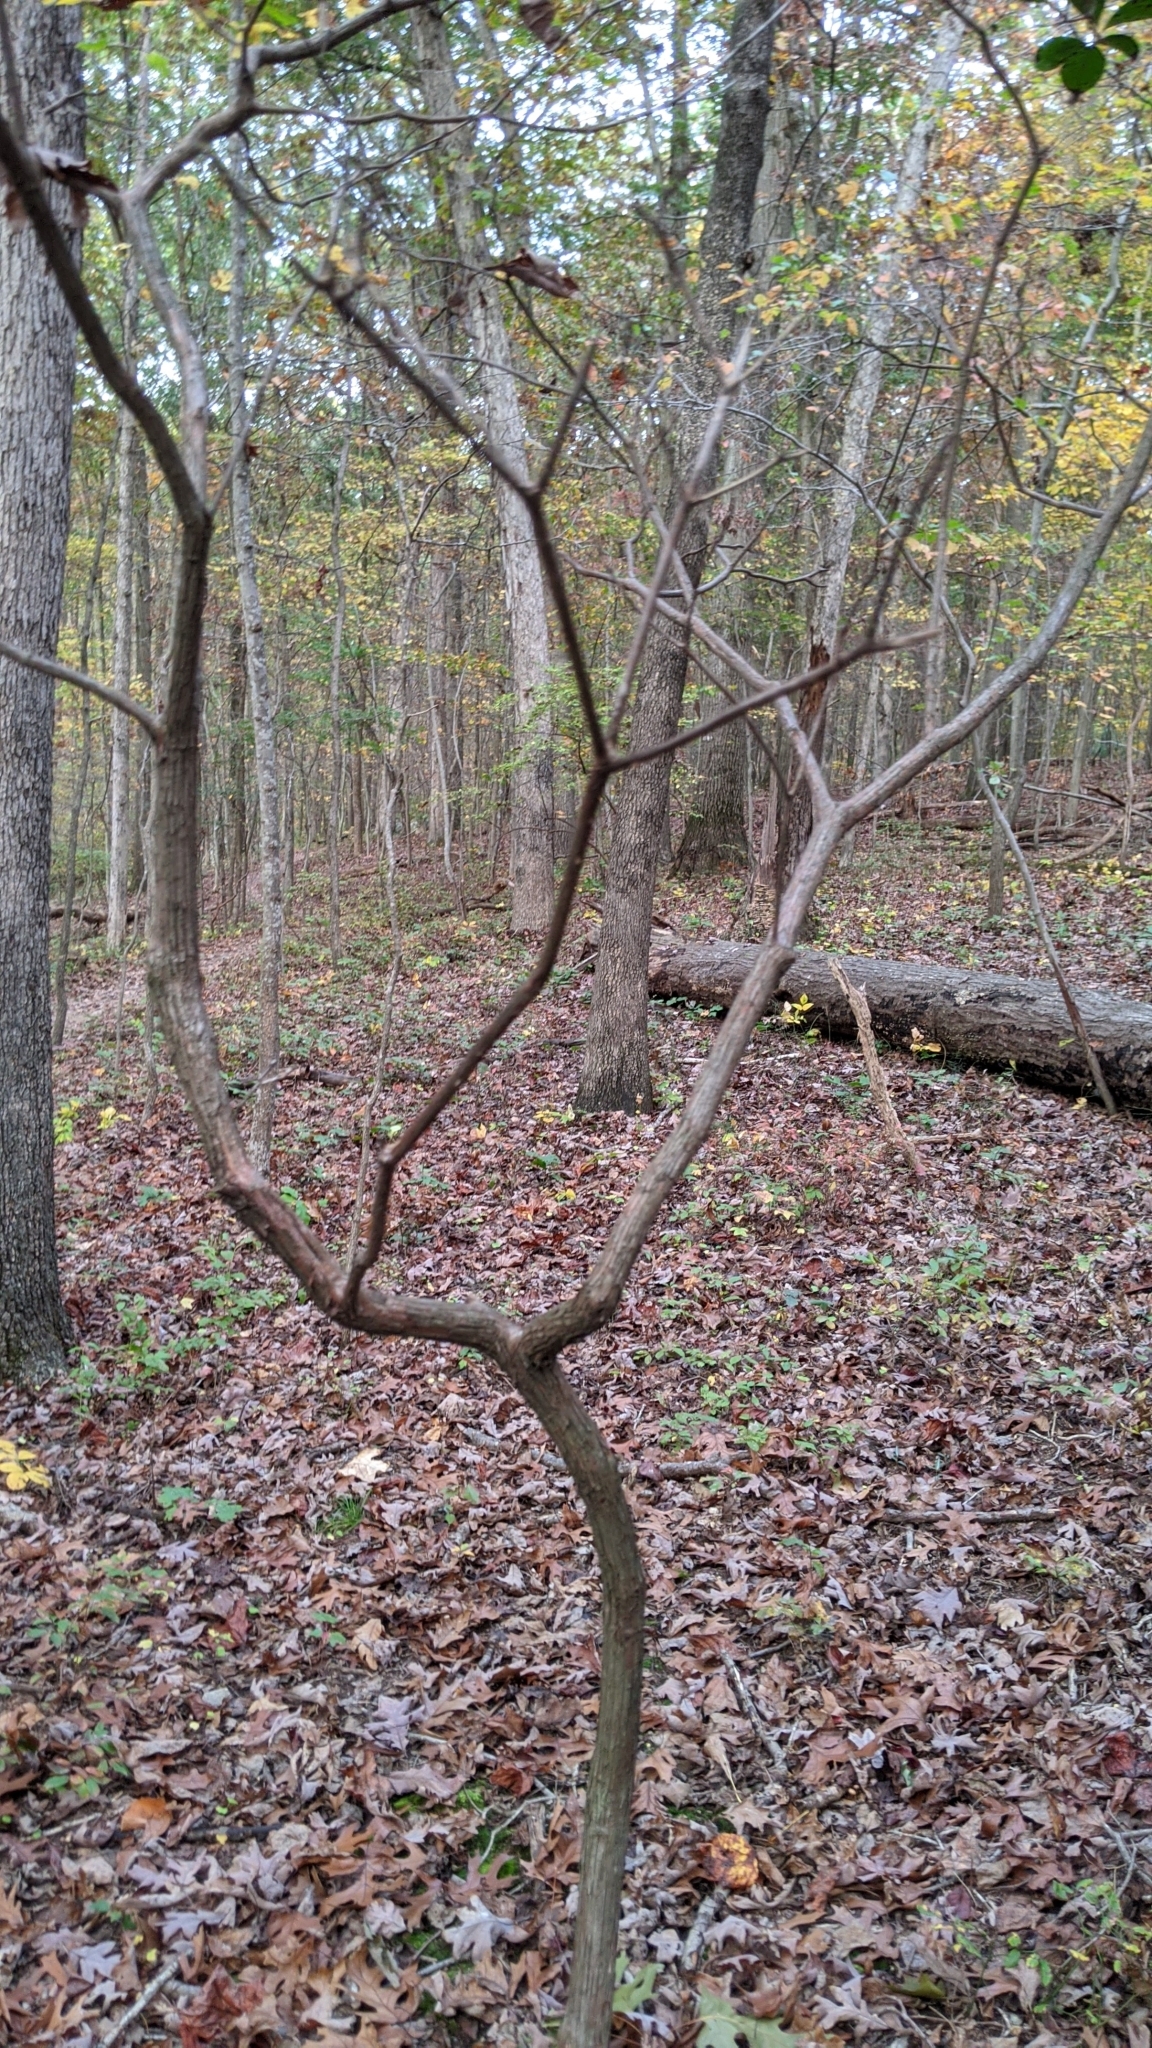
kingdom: Plantae
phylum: Tracheophyta
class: Magnoliopsida
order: Ericales
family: Ericaceae
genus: Kalmia
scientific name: Kalmia latifolia
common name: Mountain-laurel
